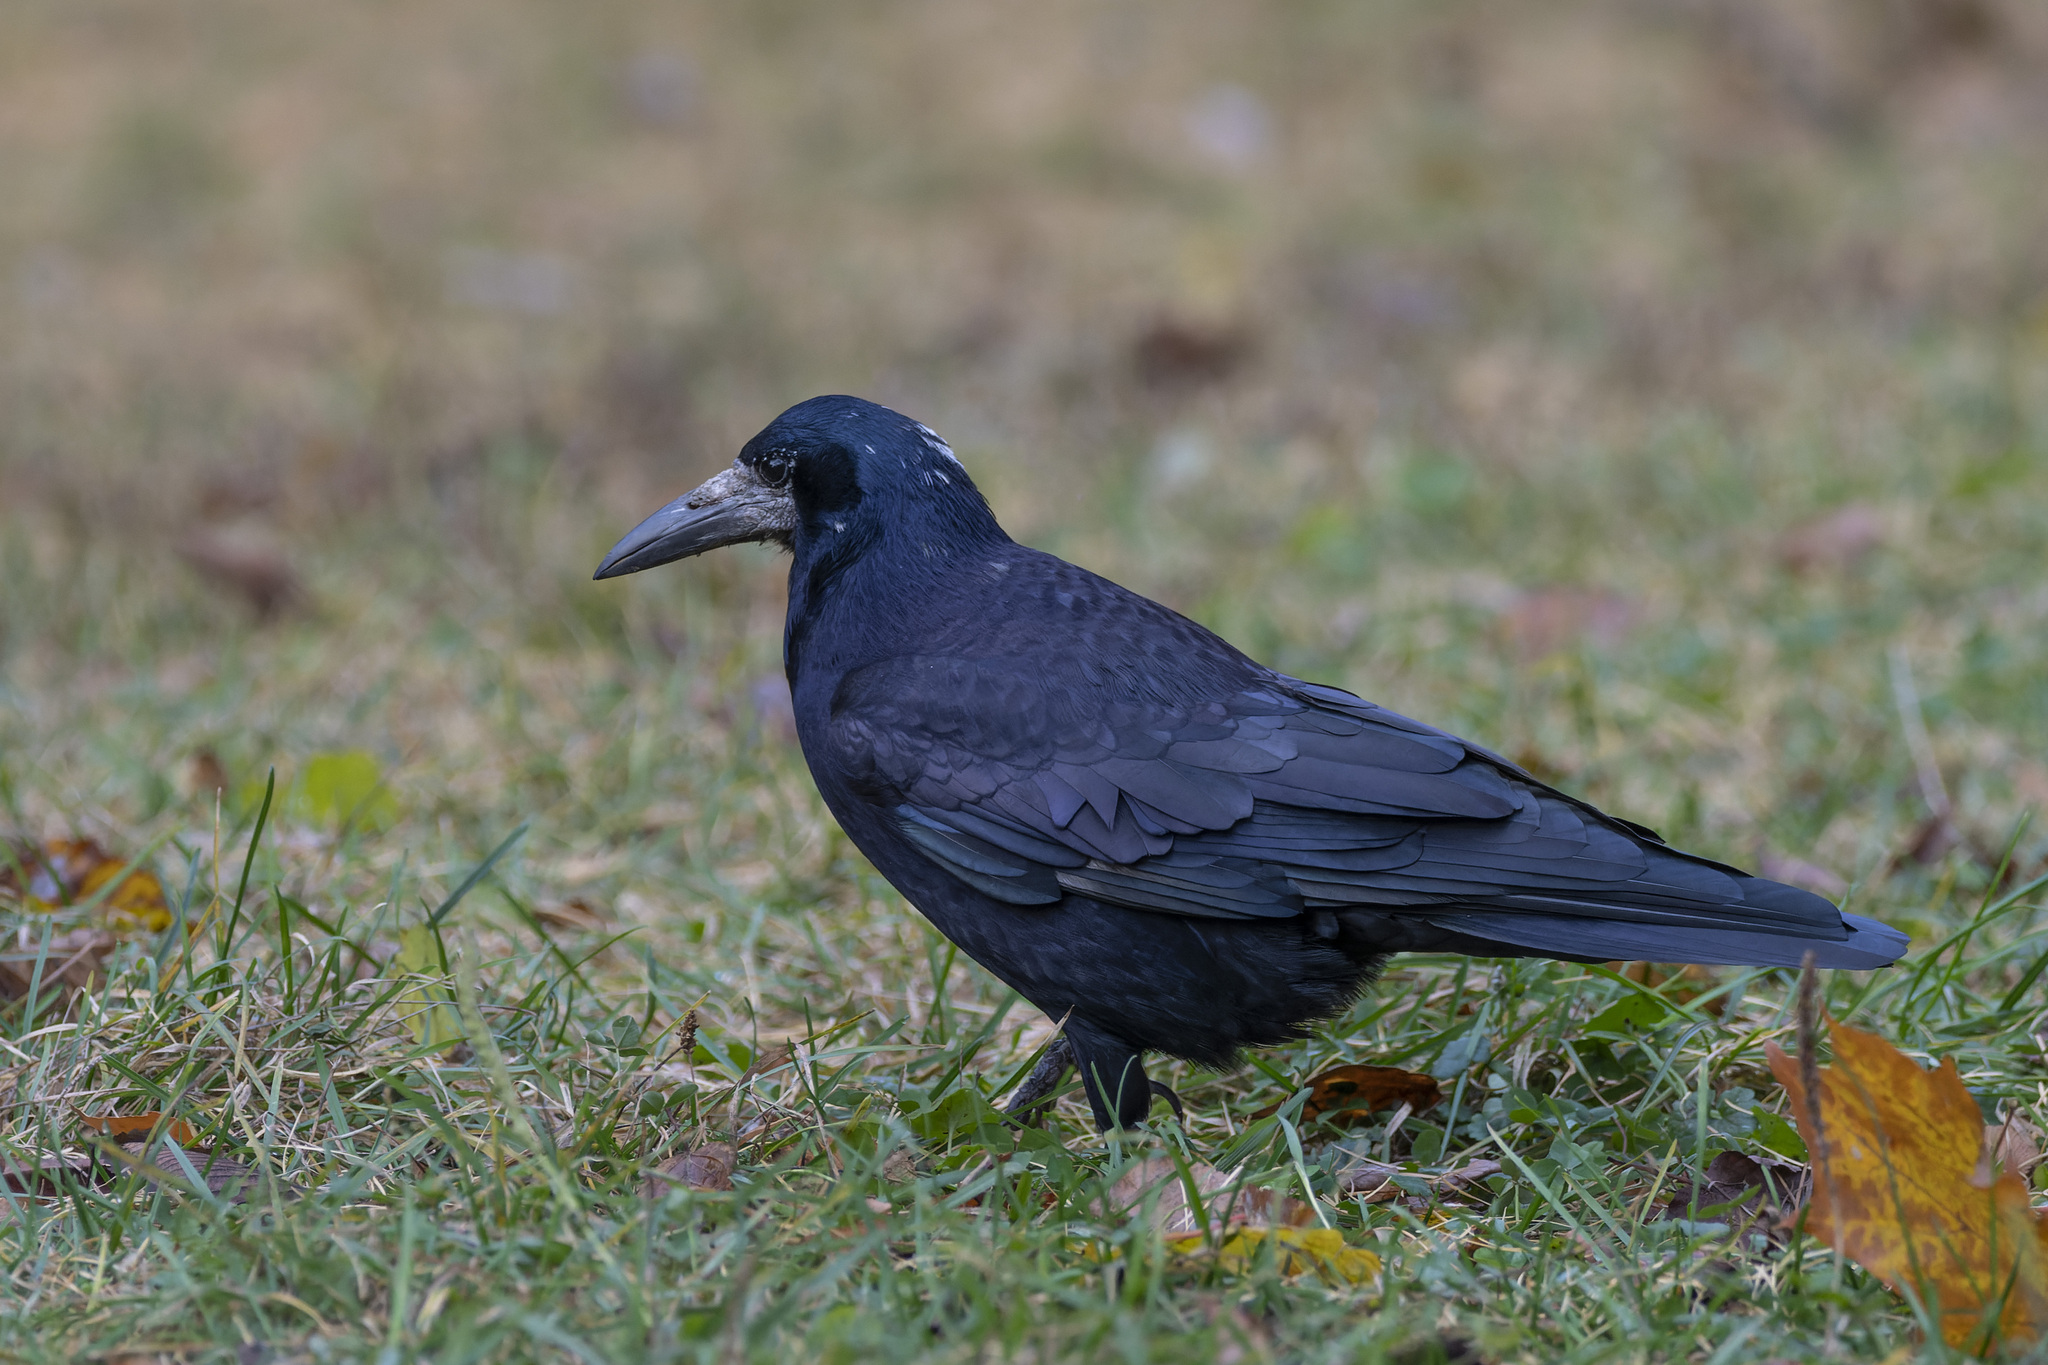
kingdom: Animalia
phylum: Chordata
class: Aves
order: Passeriformes
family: Corvidae
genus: Corvus
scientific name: Corvus frugilegus
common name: Rook
